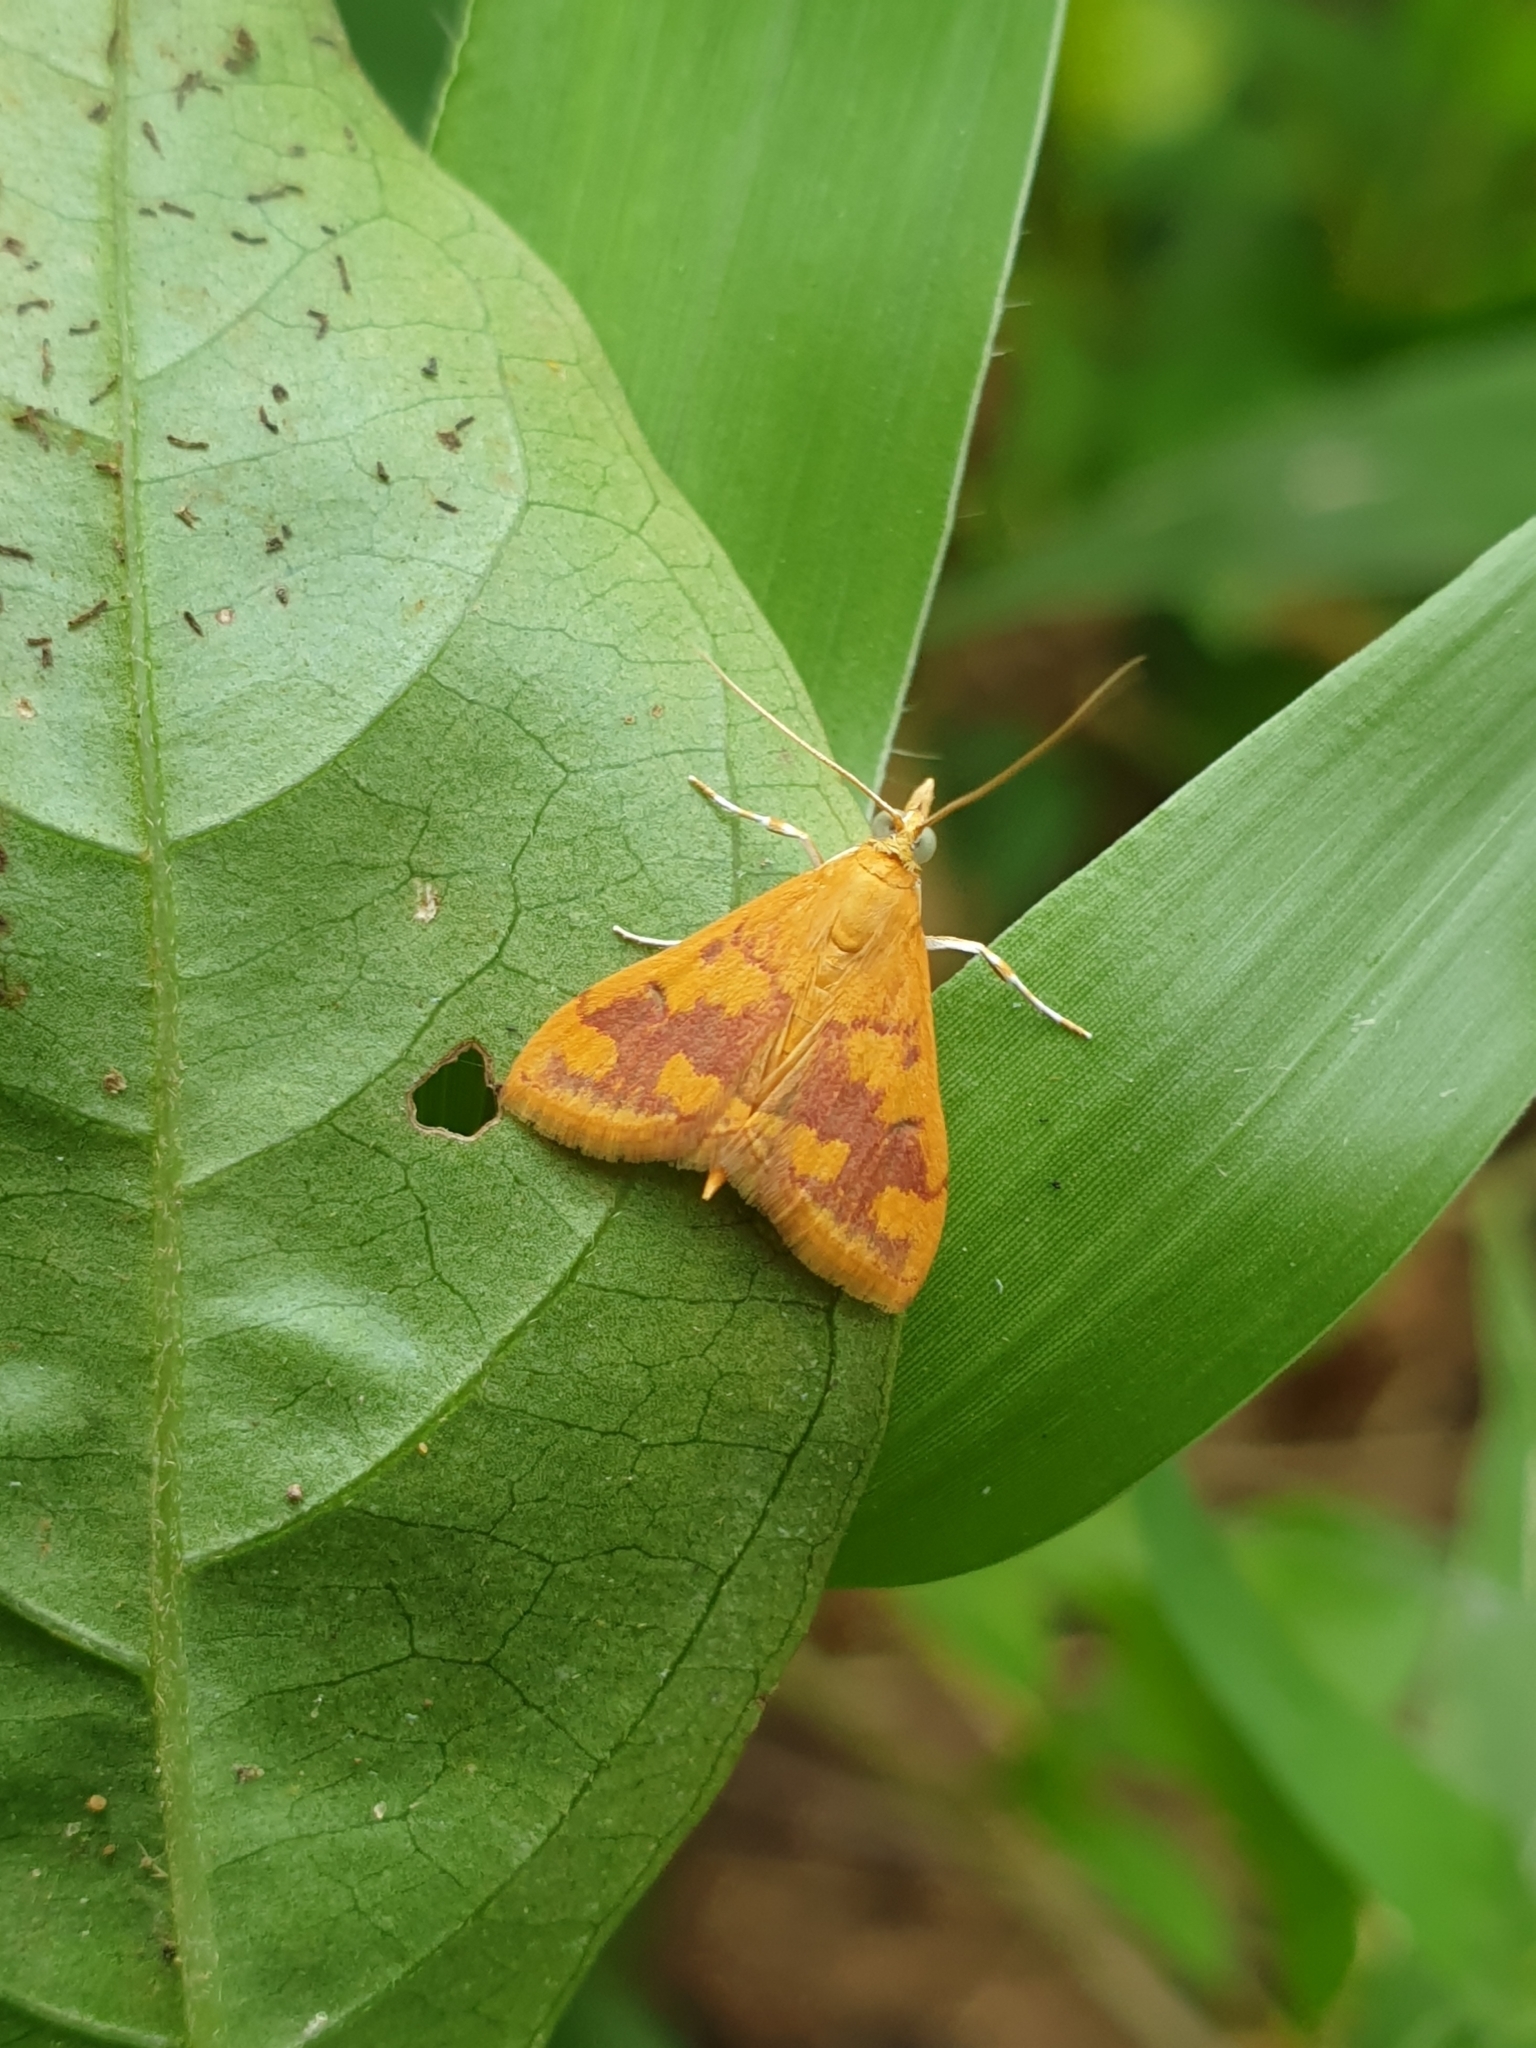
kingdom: Animalia
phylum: Arthropoda
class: Insecta
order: Lepidoptera
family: Crambidae
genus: Pyrausta
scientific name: Pyrausta phoenicealis
